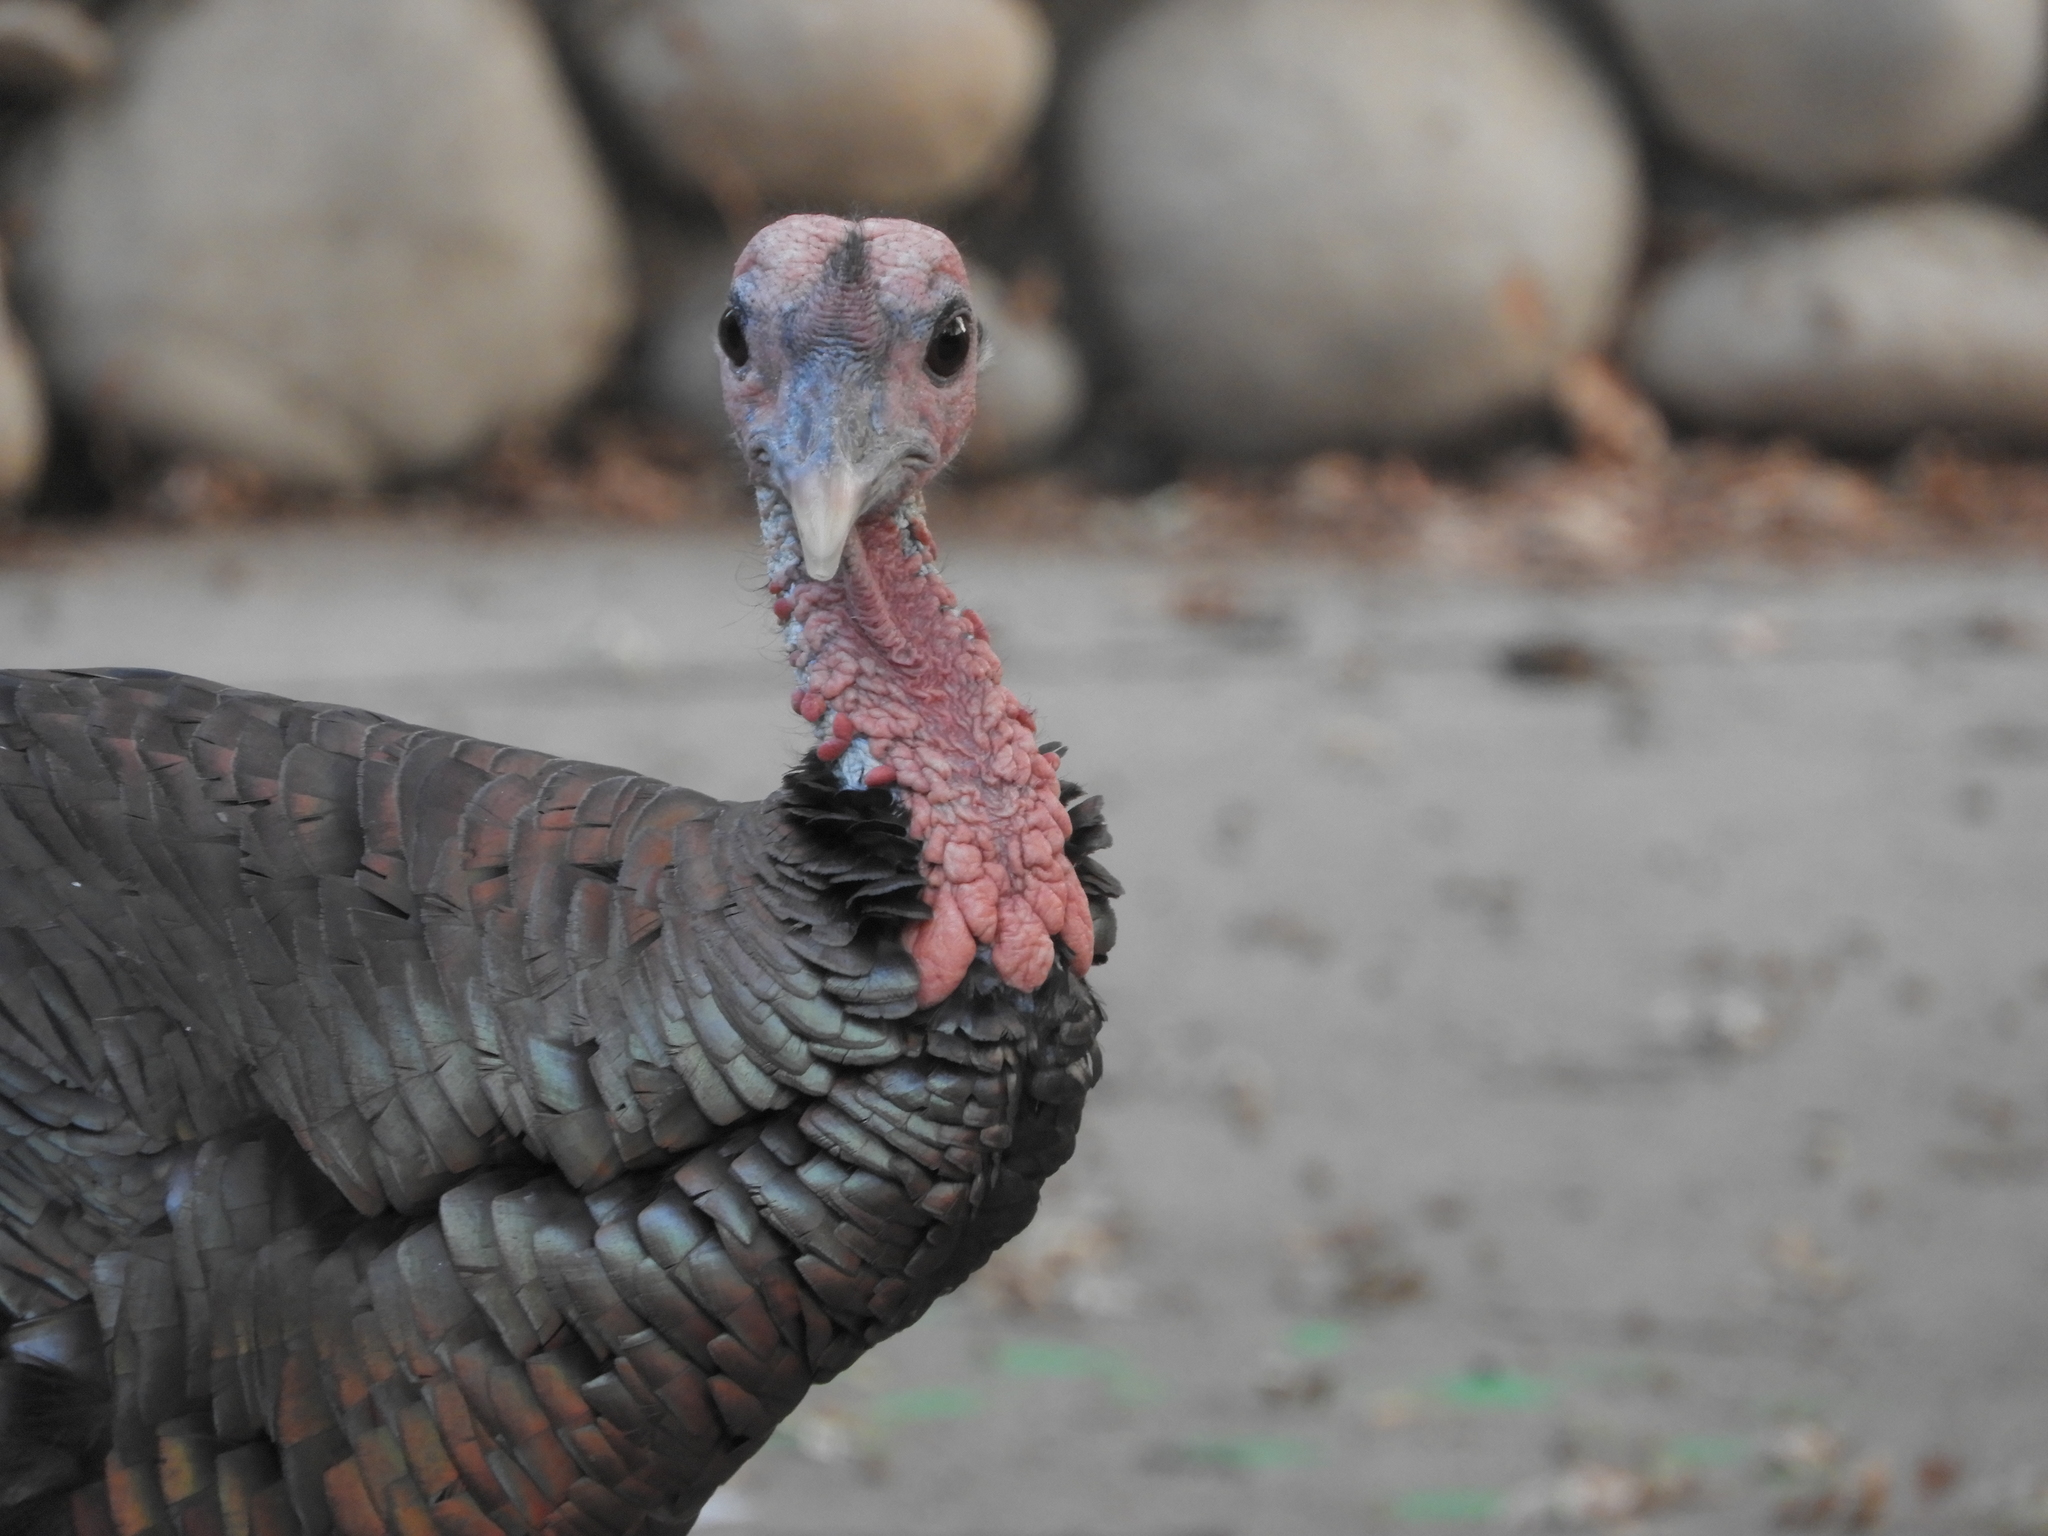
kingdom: Animalia
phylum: Chordata
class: Aves
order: Galliformes
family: Phasianidae
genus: Meleagris
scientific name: Meleagris gallopavo
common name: Wild turkey
